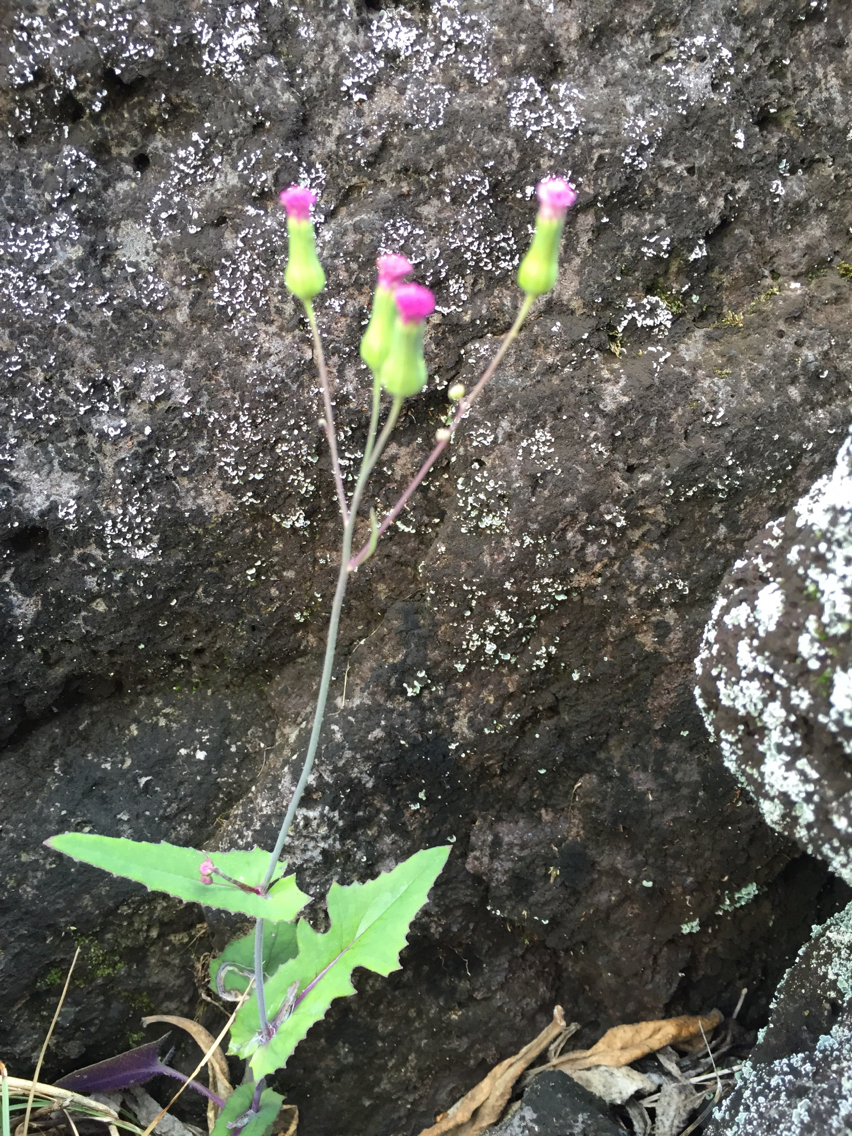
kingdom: Plantae
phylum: Tracheophyta
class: Magnoliopsida
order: Asterales
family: Asteraceae
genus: Emilia
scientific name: Emilia sonchifolia
